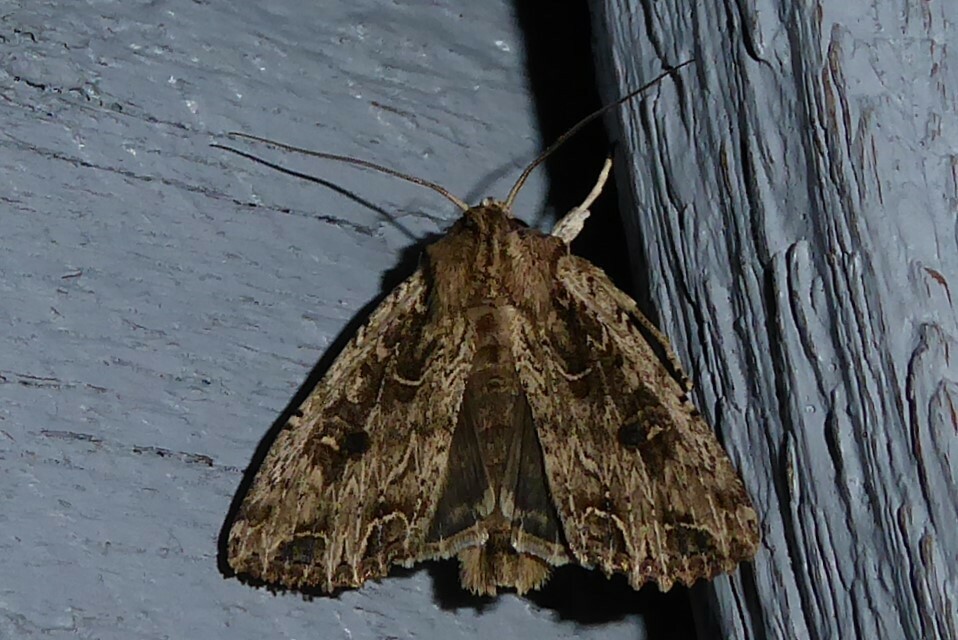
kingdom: Animalia
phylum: Arthropoda
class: Insecta
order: Lepidoptera
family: Noctuidae
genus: Ichneutica
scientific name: Ichneutica lignana
